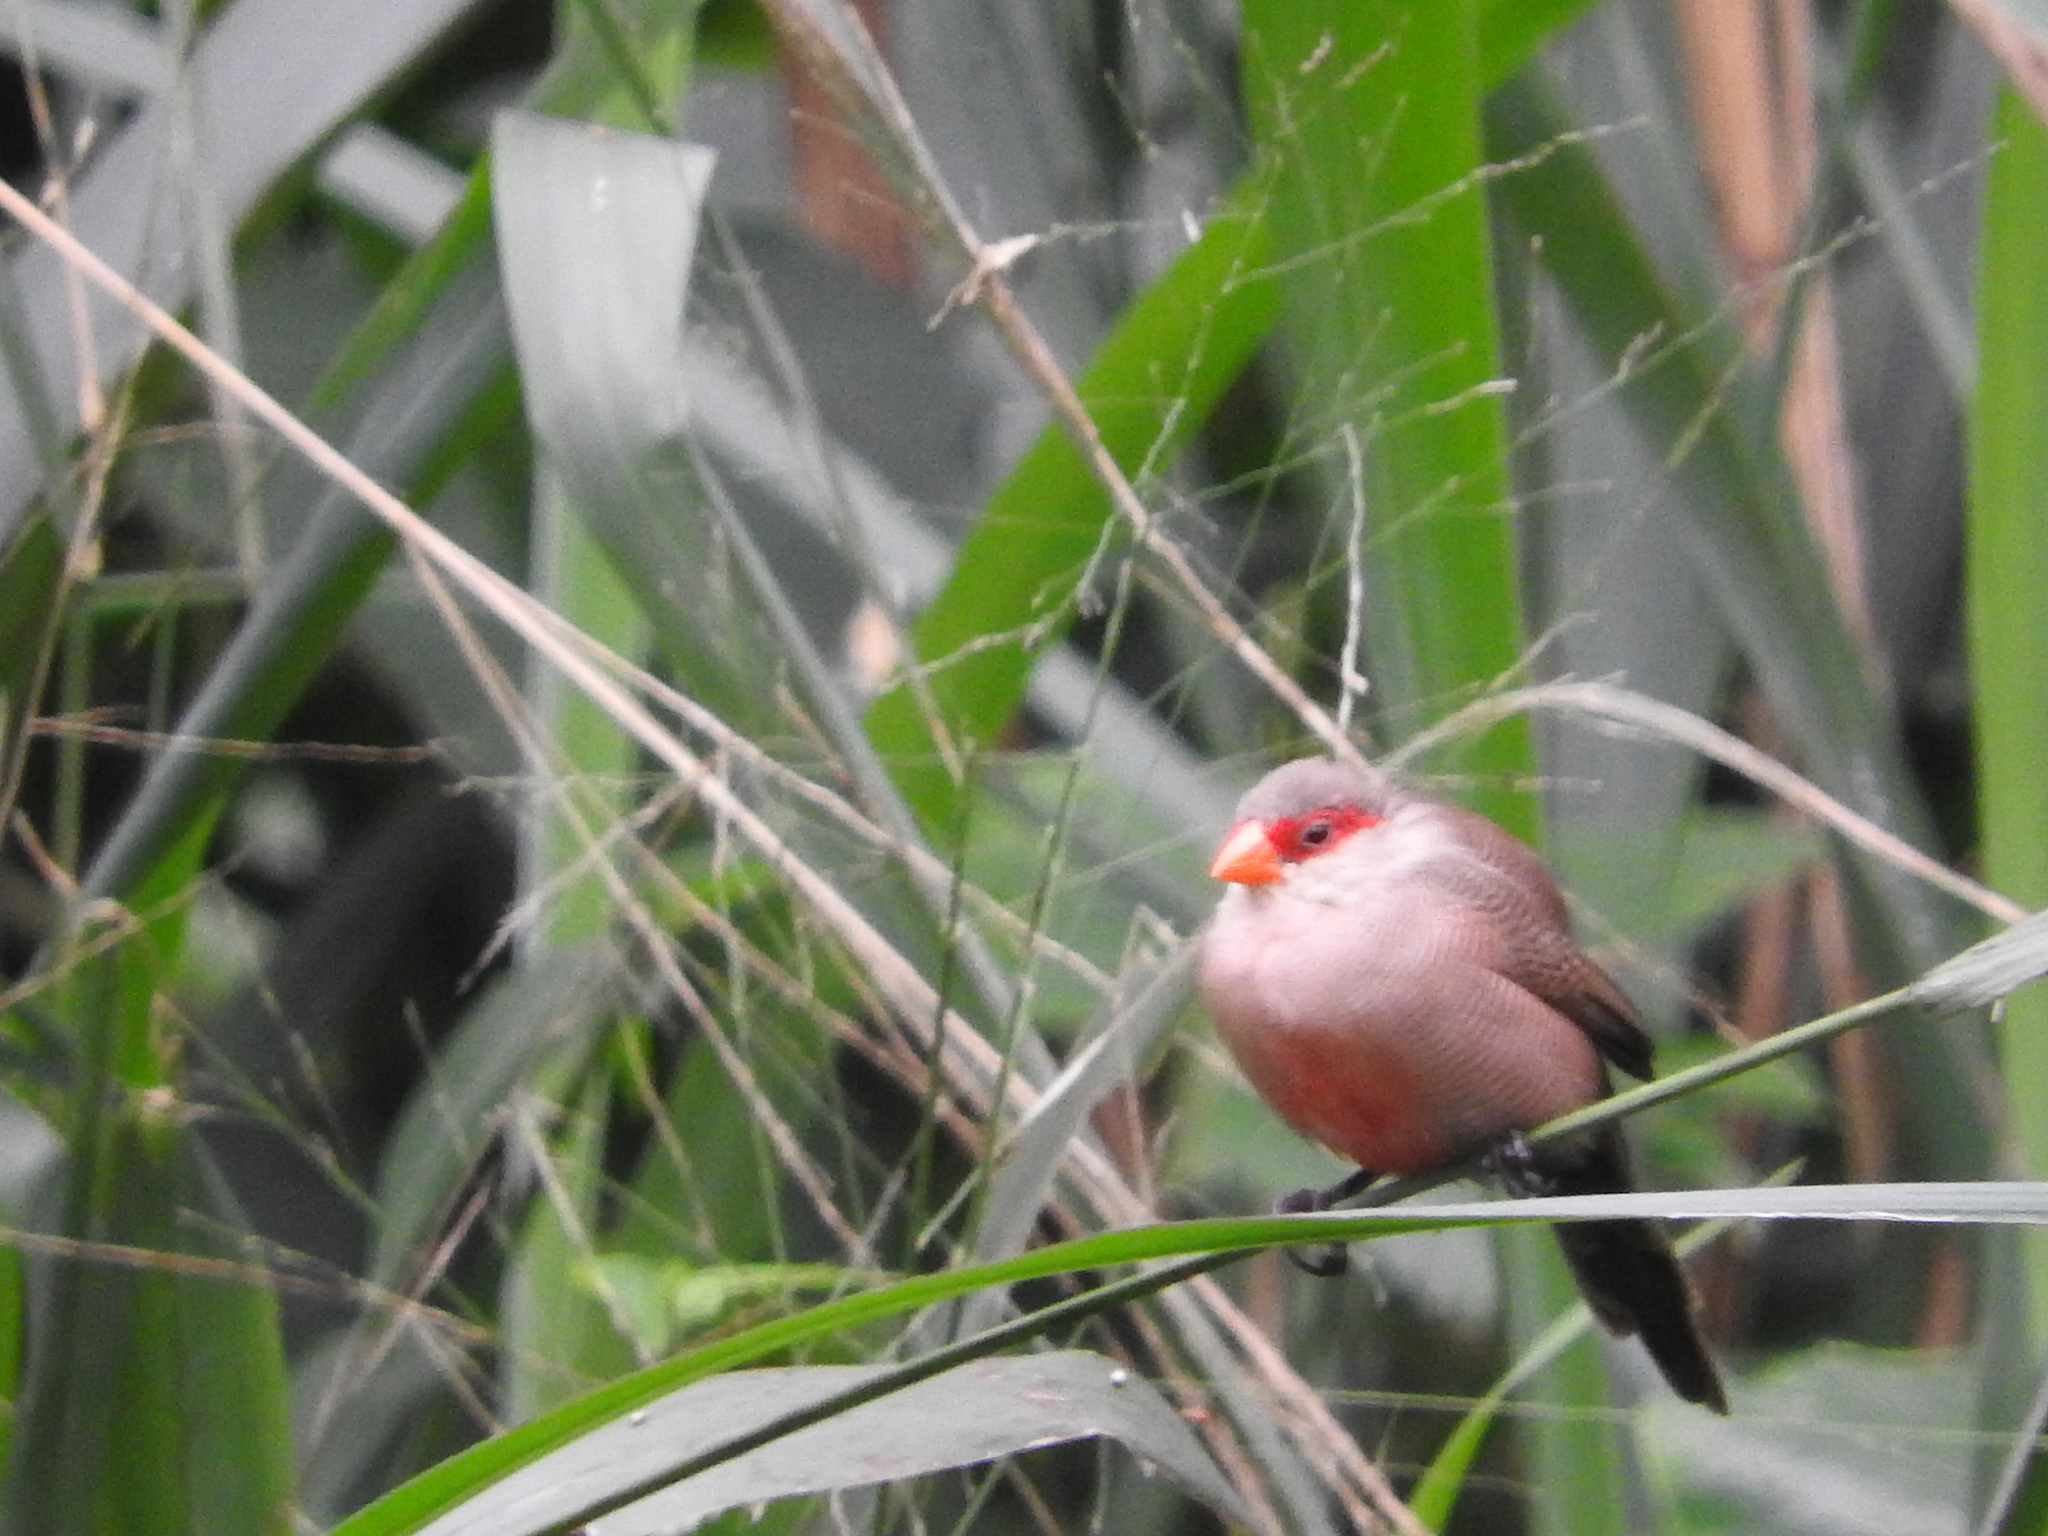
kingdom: Animalia
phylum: Chordata
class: Aves
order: Passeriformes
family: Estrildidae
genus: Estrilda
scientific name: Estrilda astrild
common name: Common waxbill
